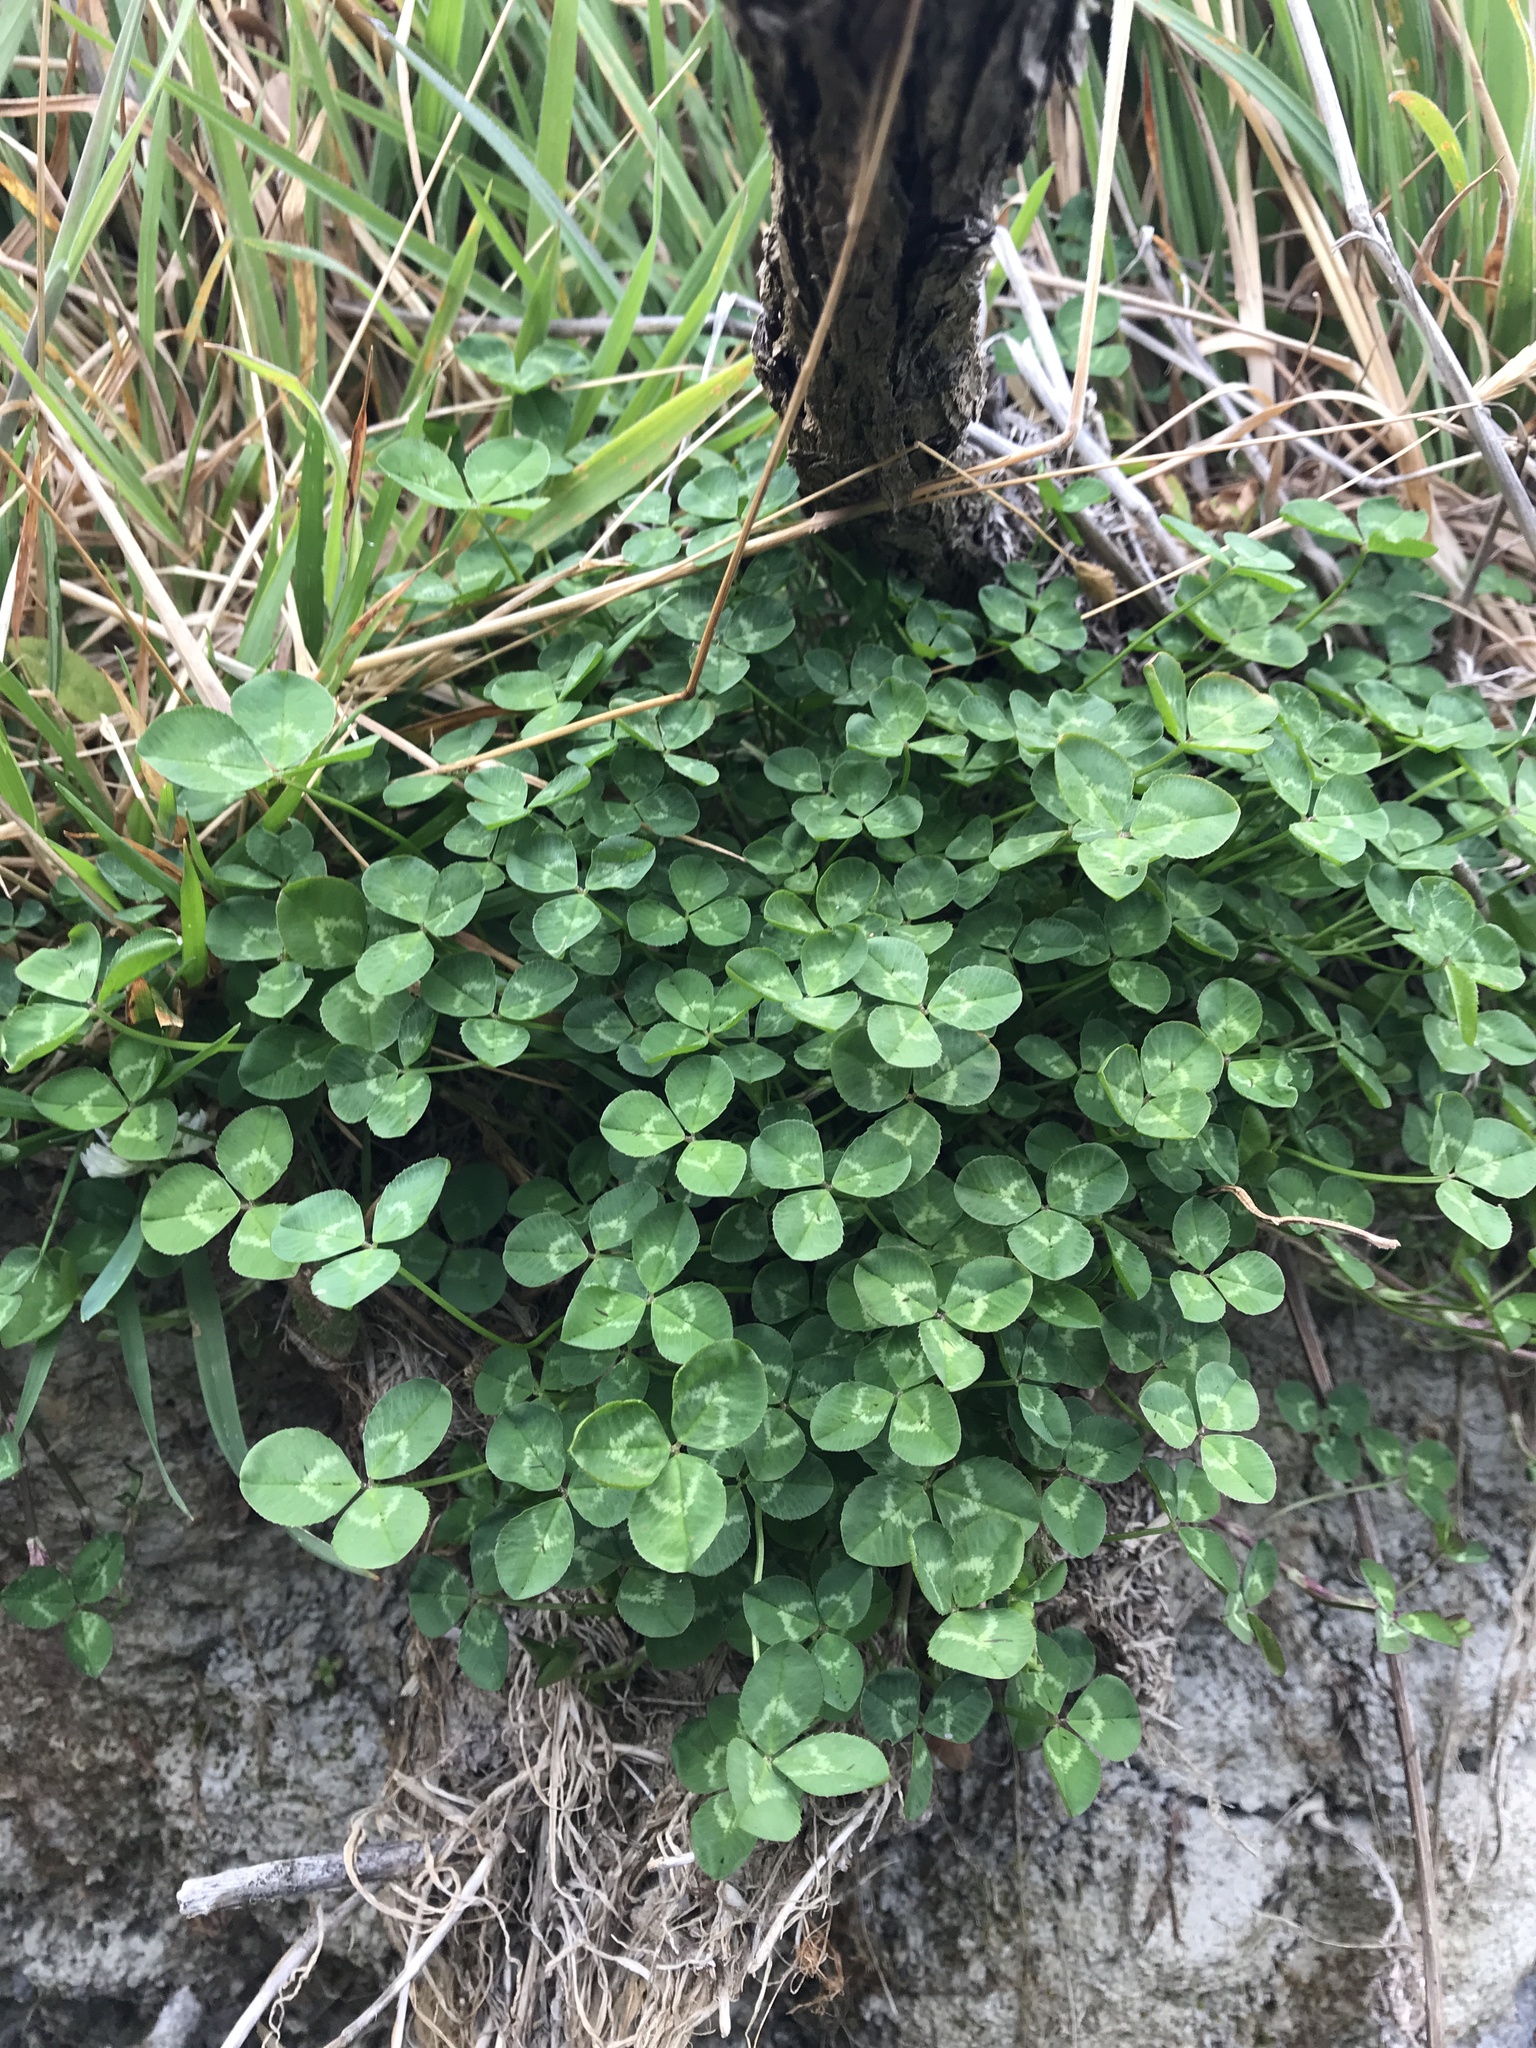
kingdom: Plantae
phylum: Tracheophyta
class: Magnoliopsida
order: Fabales
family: Fabaceae
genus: Trifolium
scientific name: Trifolium repens
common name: White clover
